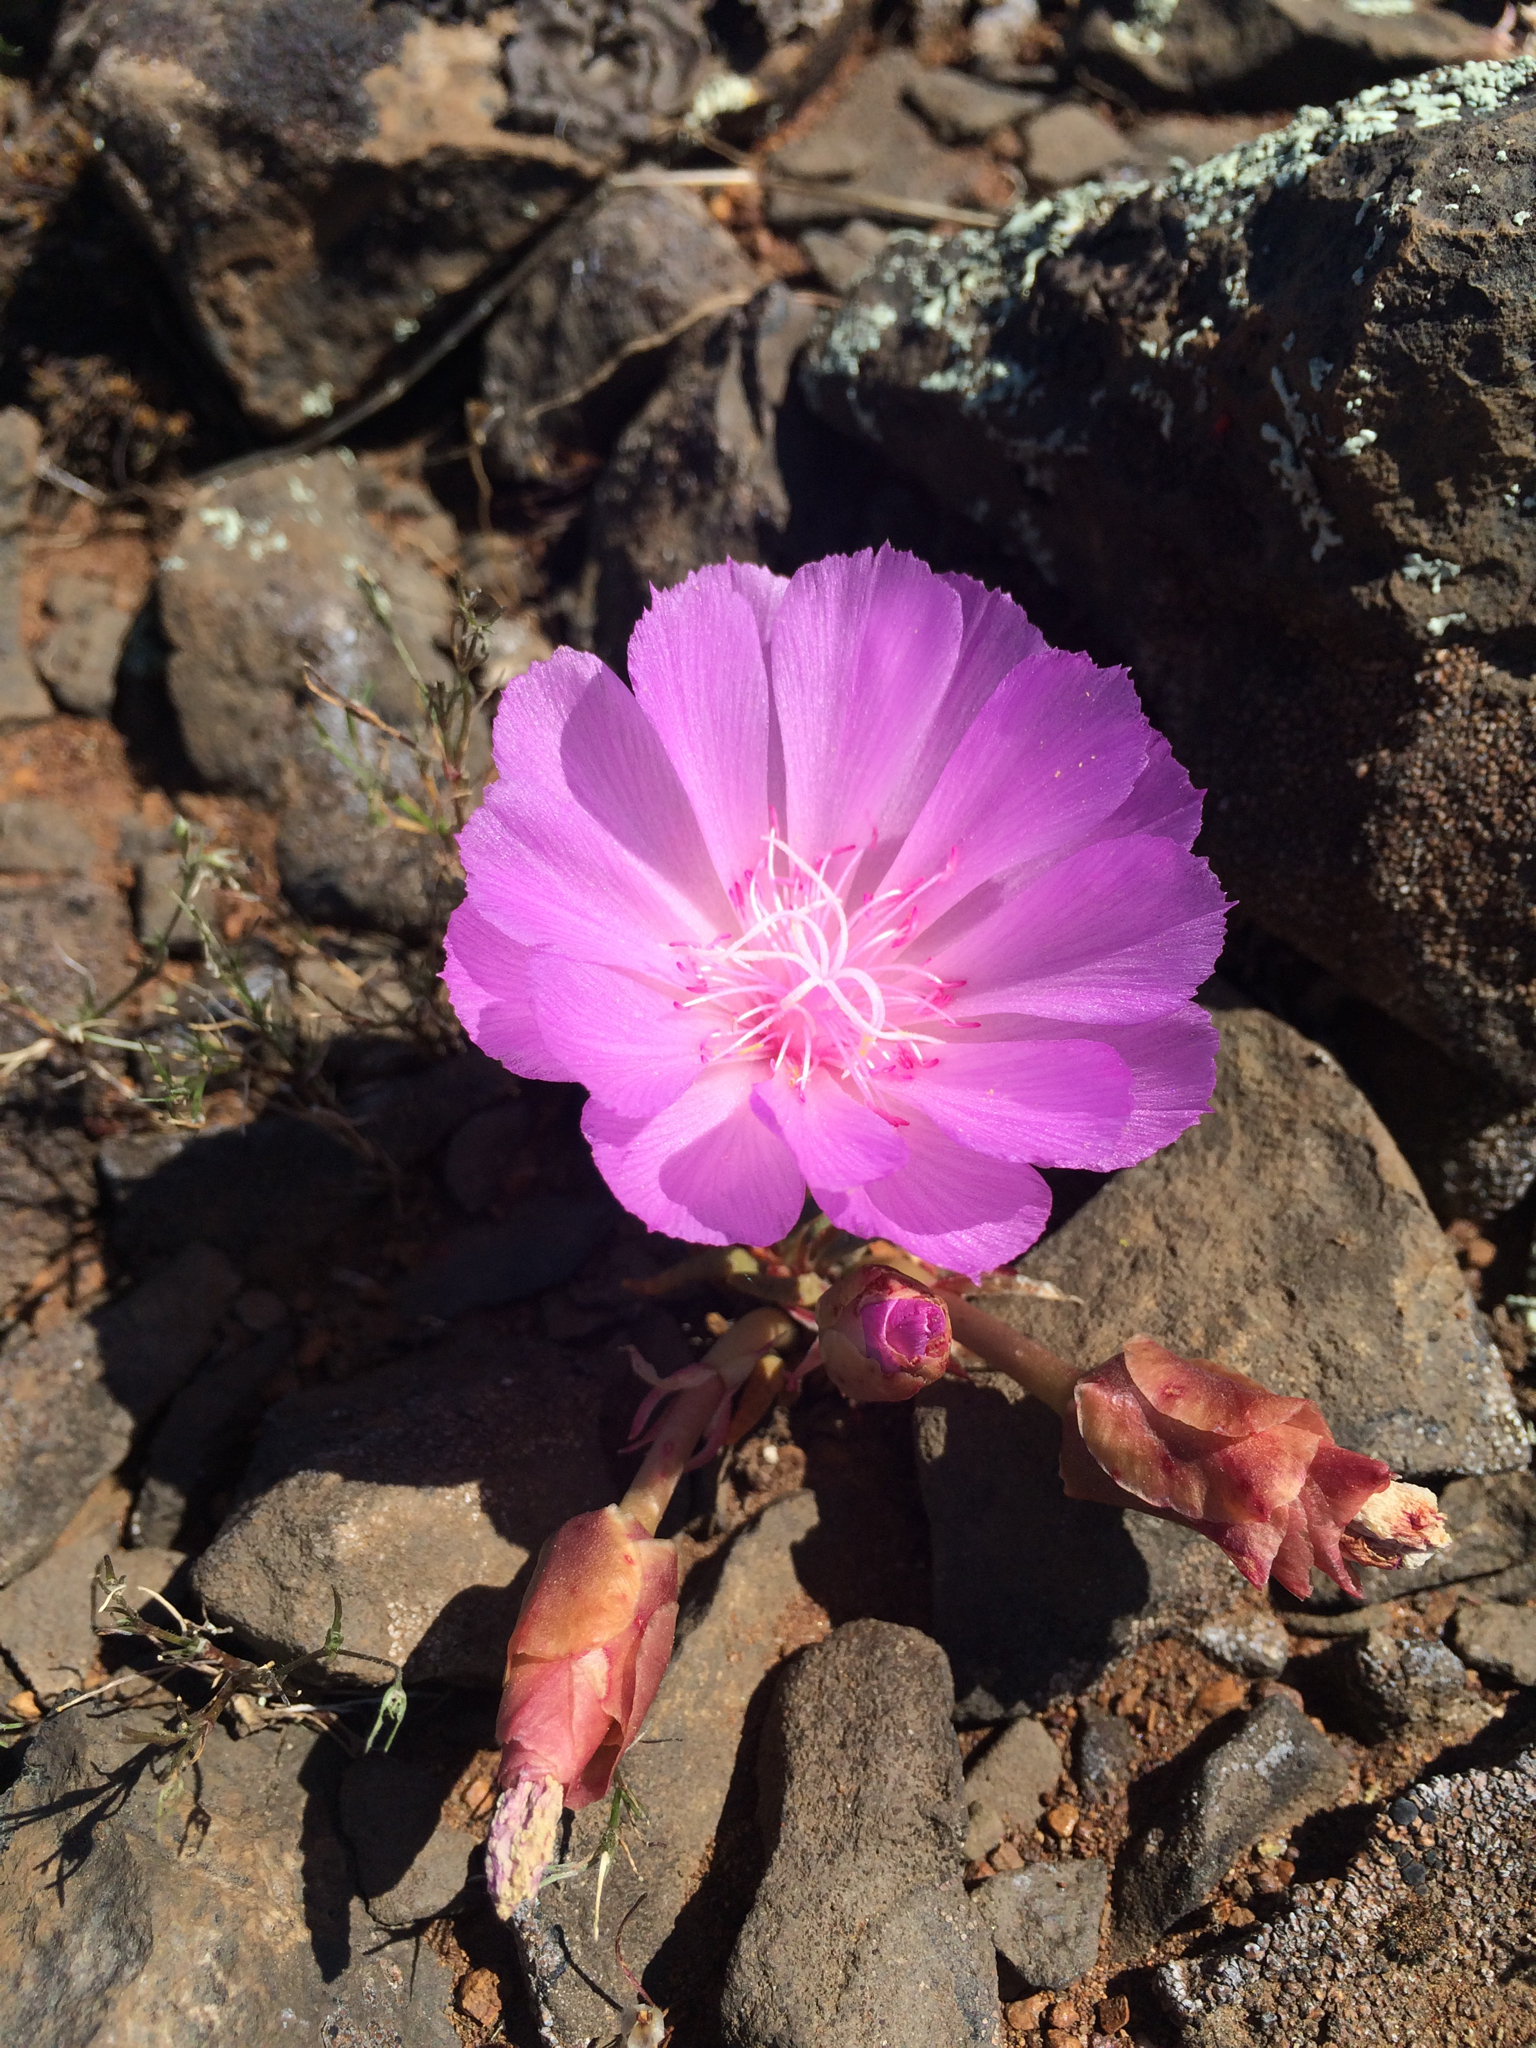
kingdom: Plantae
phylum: Tracheophyta
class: Magnoliopsida
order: Caryophyllales
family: Montiaceae
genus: Lewisia
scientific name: Lewisia rediviva
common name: Bitter-root
